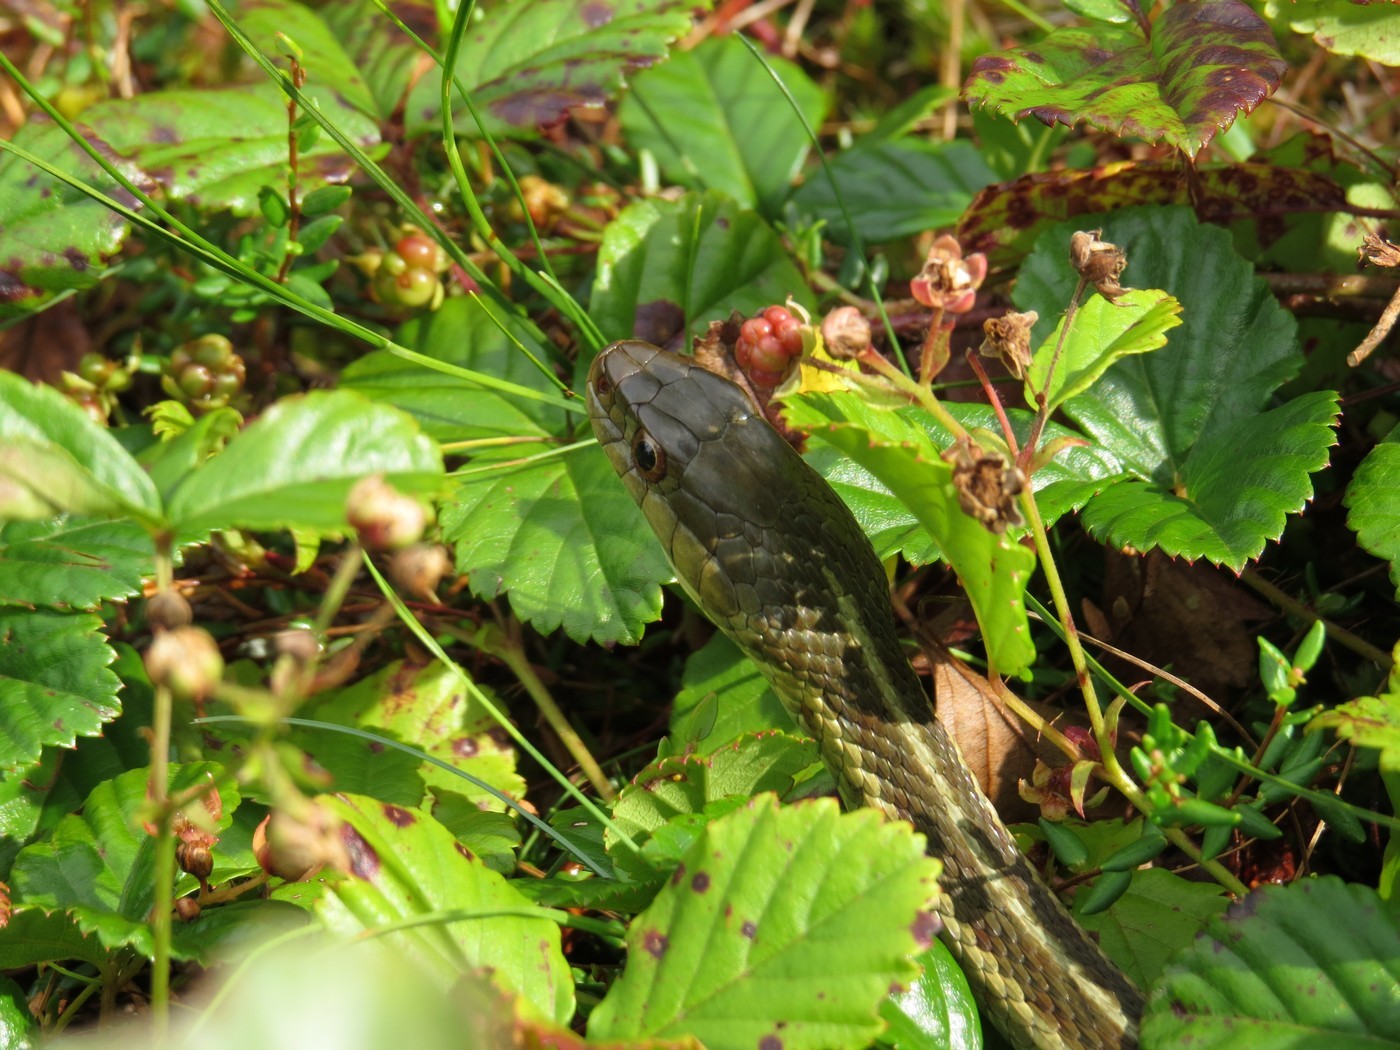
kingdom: Animalia
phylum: Chordata
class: Squamata
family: Colubridae
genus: Thamnophis
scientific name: Thamnophis sirtalis
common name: Common garter snake
